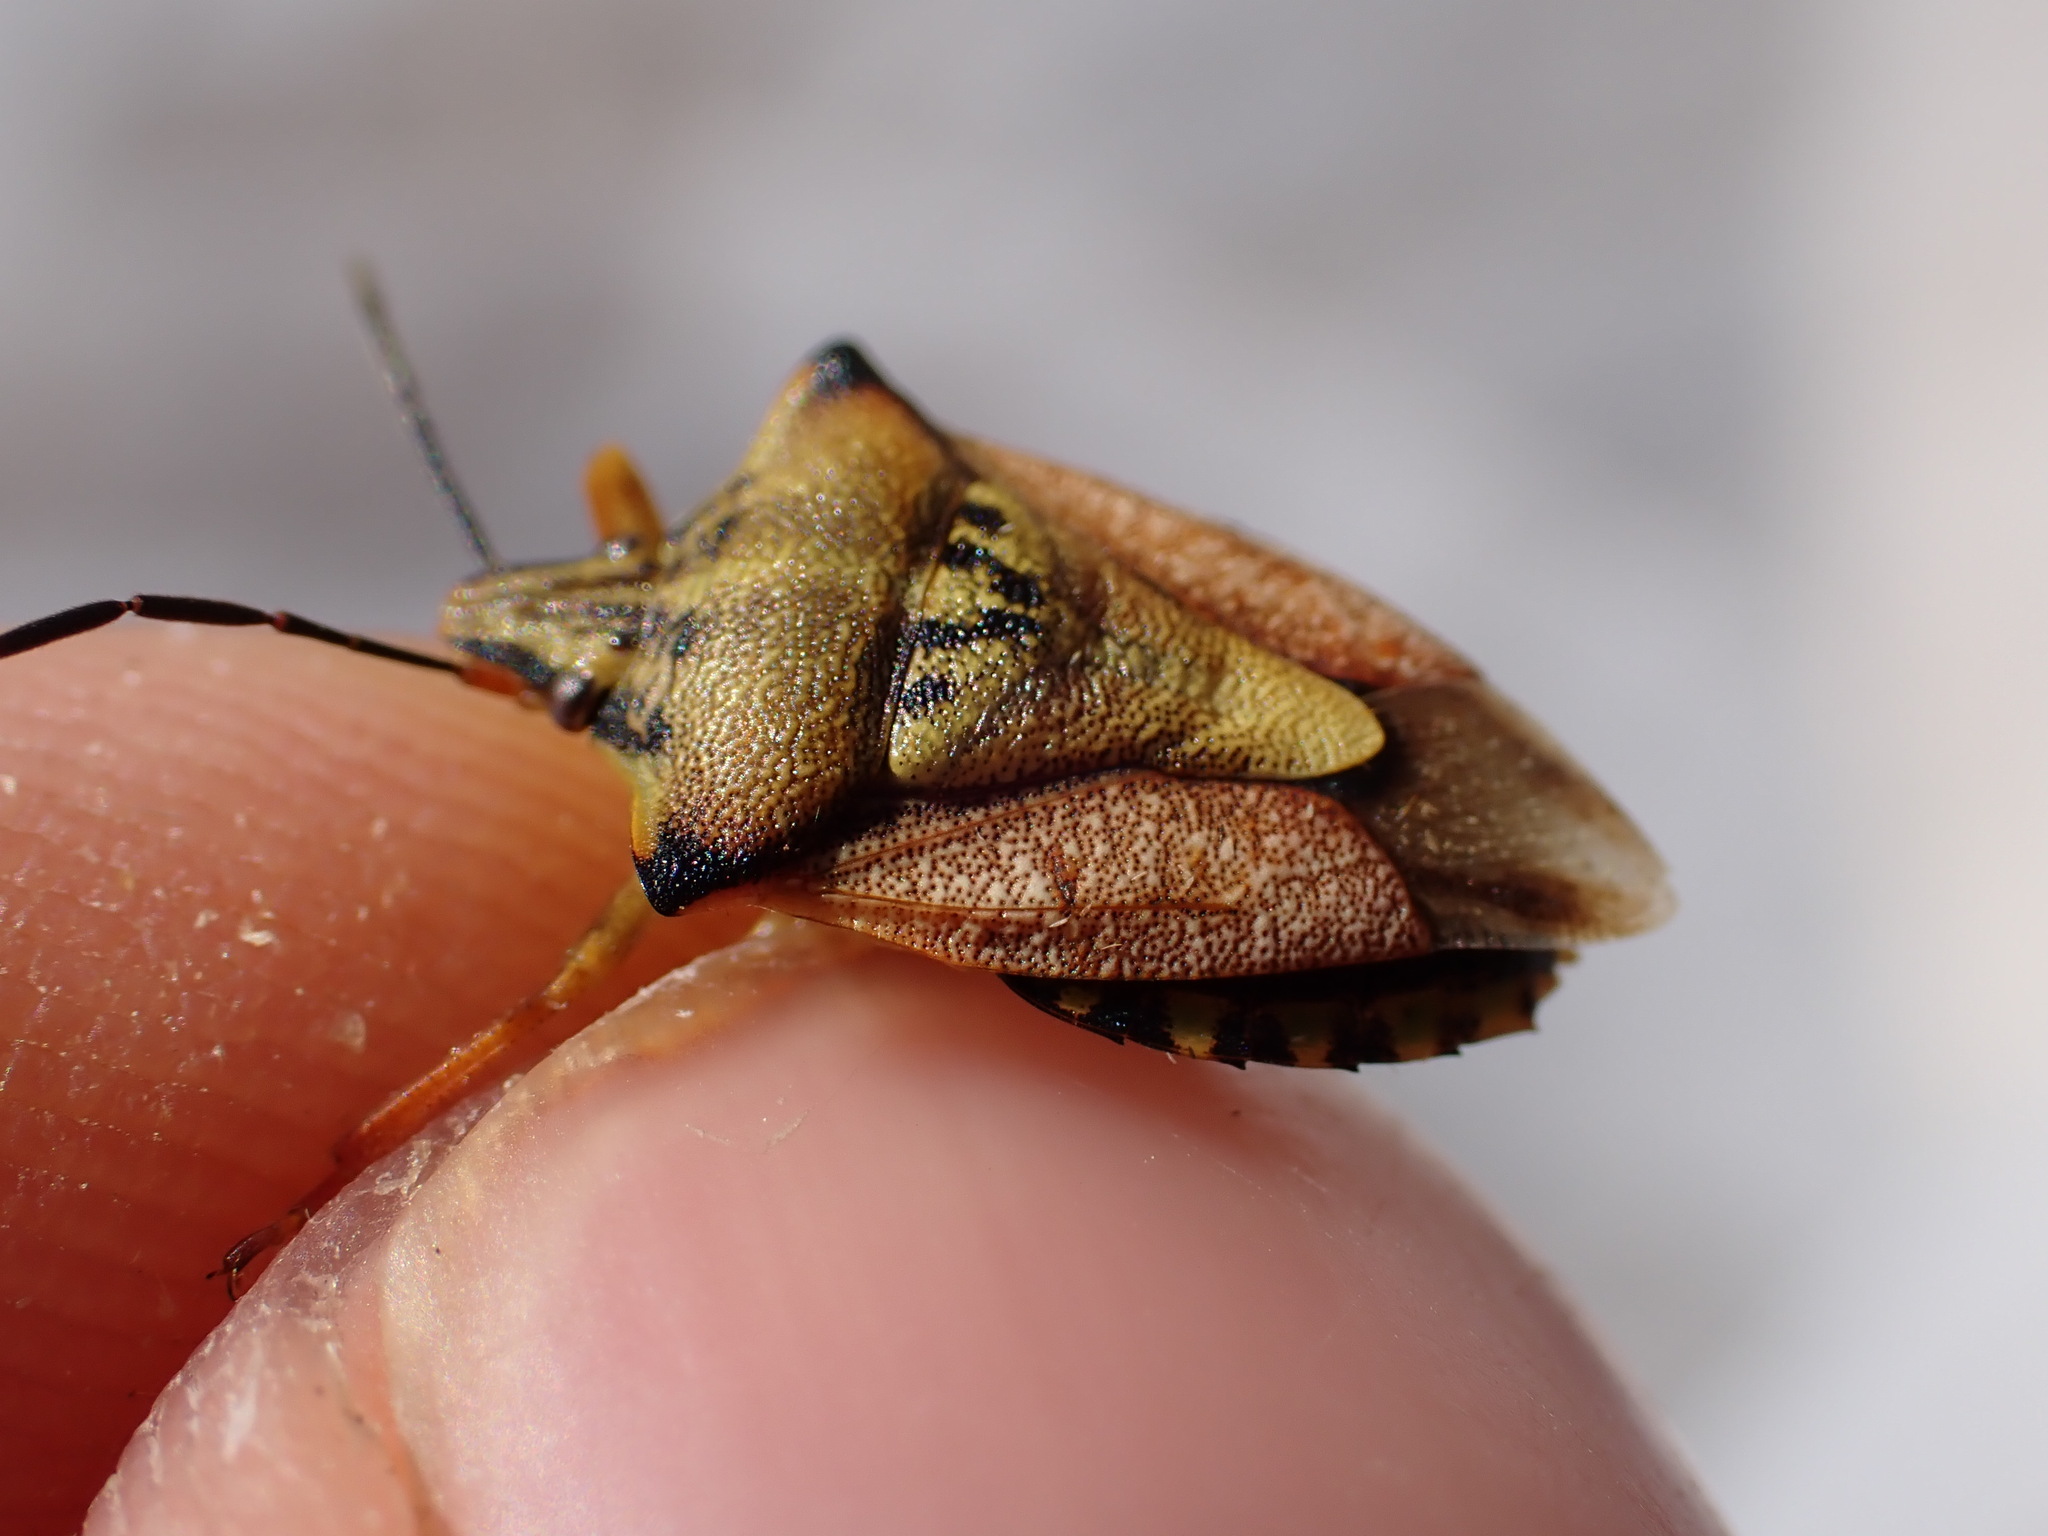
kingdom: Animalia
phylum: Arthropoda
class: Insecta
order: Hemiptera
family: Pentatomidae
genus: Carpocoris
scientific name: Carpocoris mediterraneus
